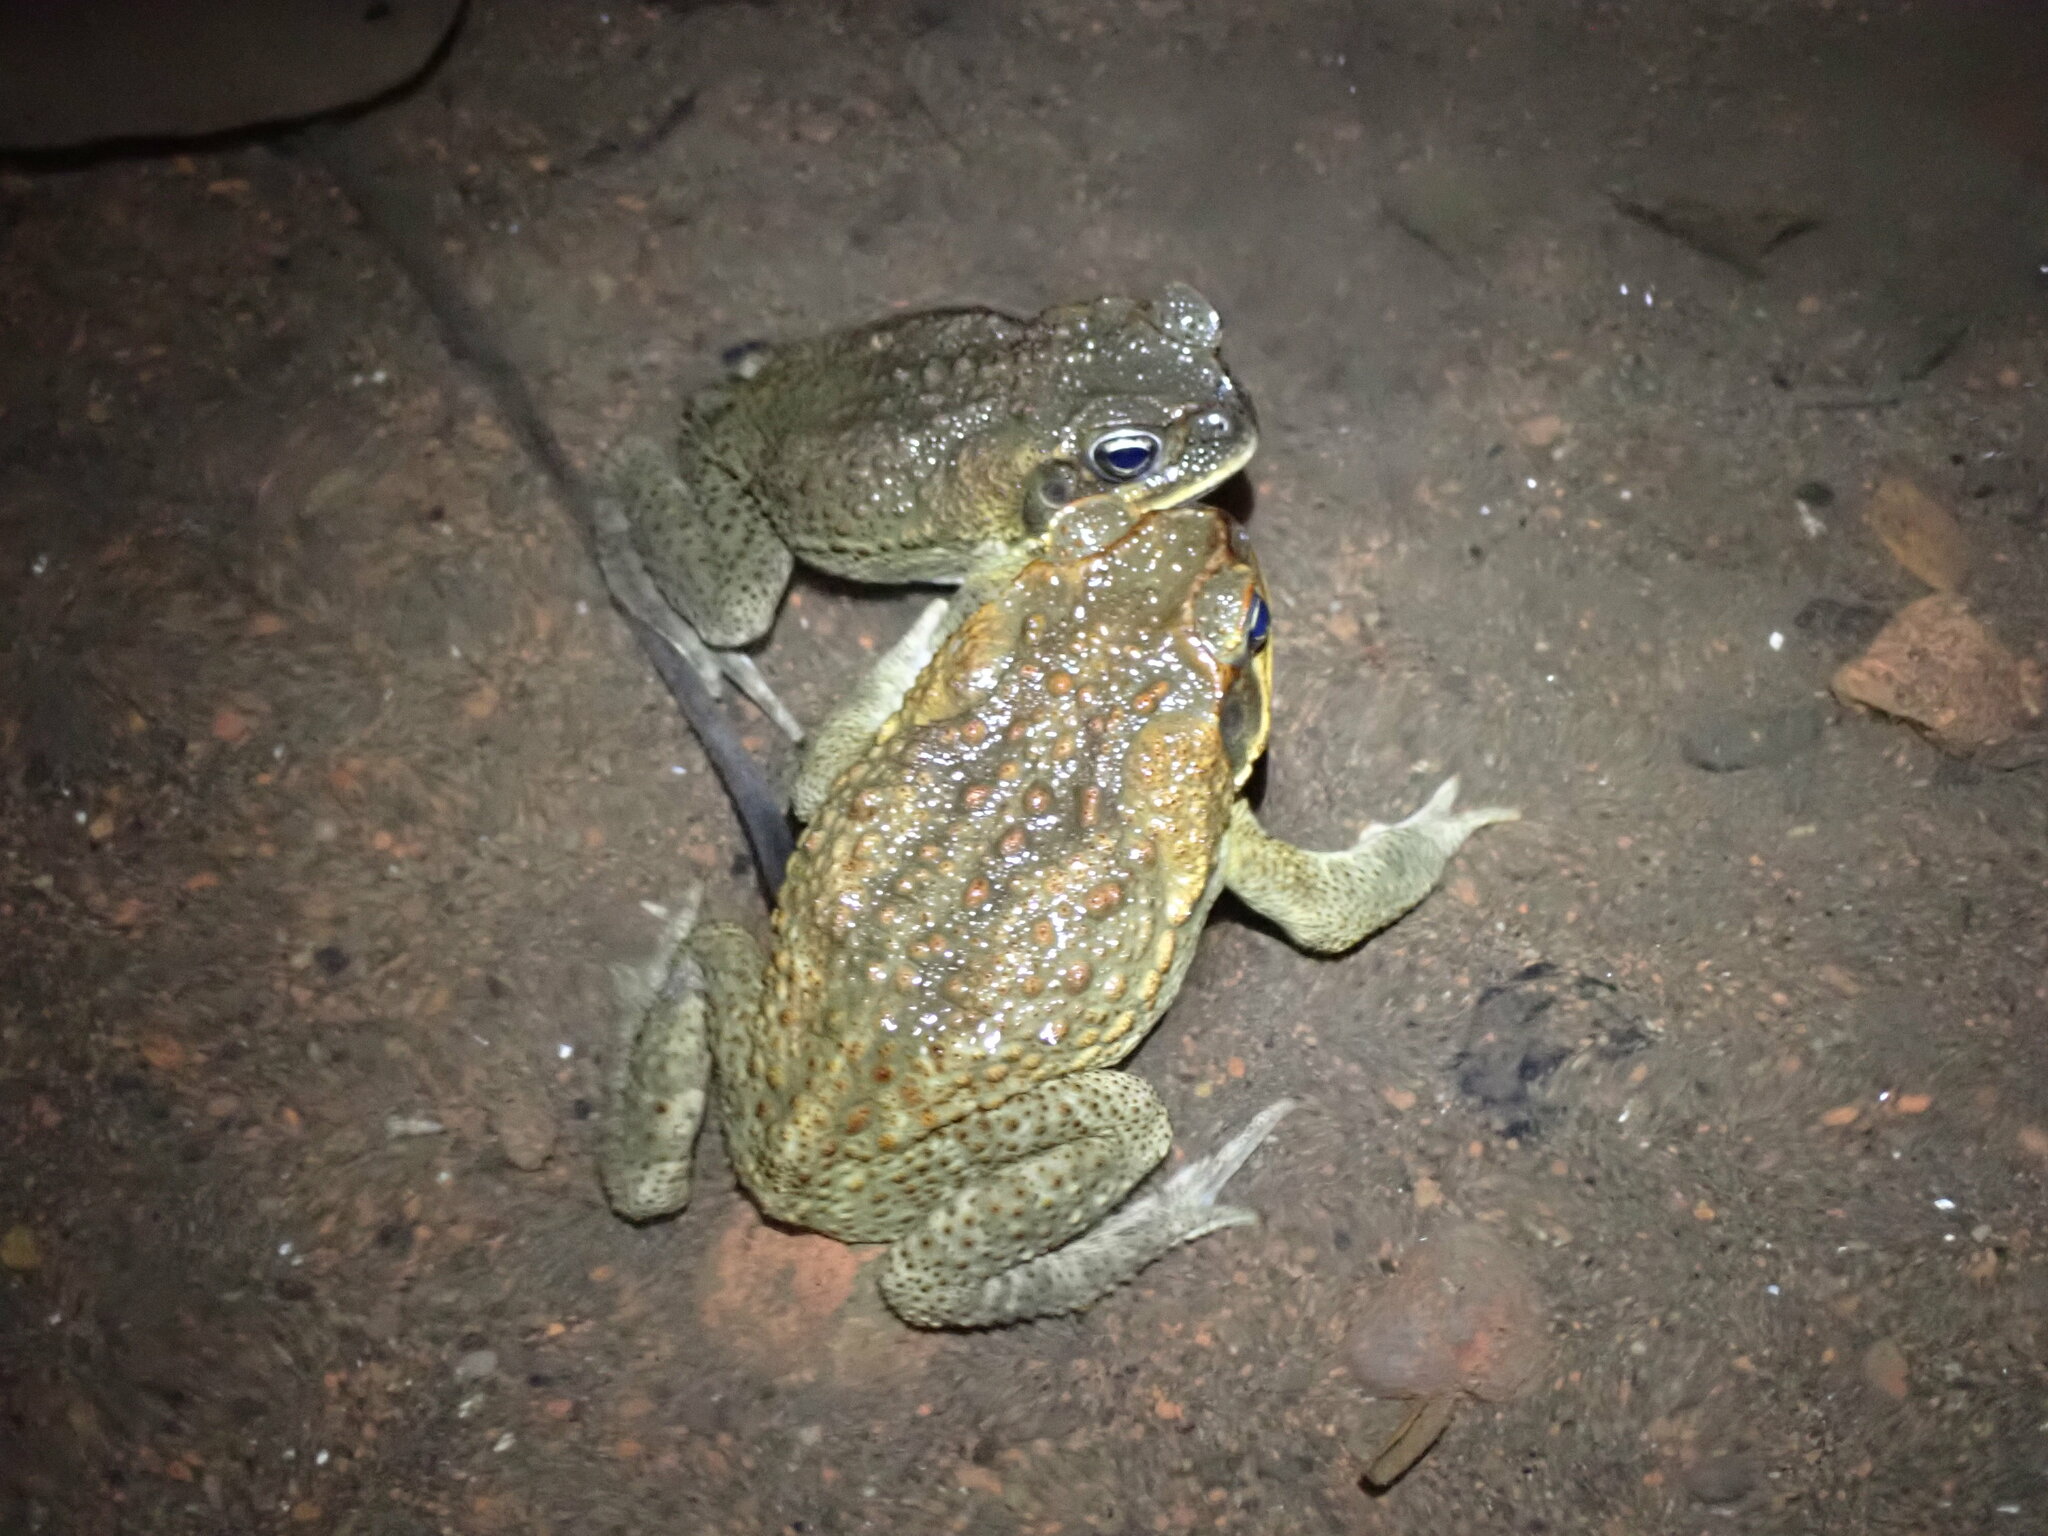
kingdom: Animalia
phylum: Chordata
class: Amphibia
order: Anura
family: Bufonidae
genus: Rhinella
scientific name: Rhinella marina
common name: Cane toad
